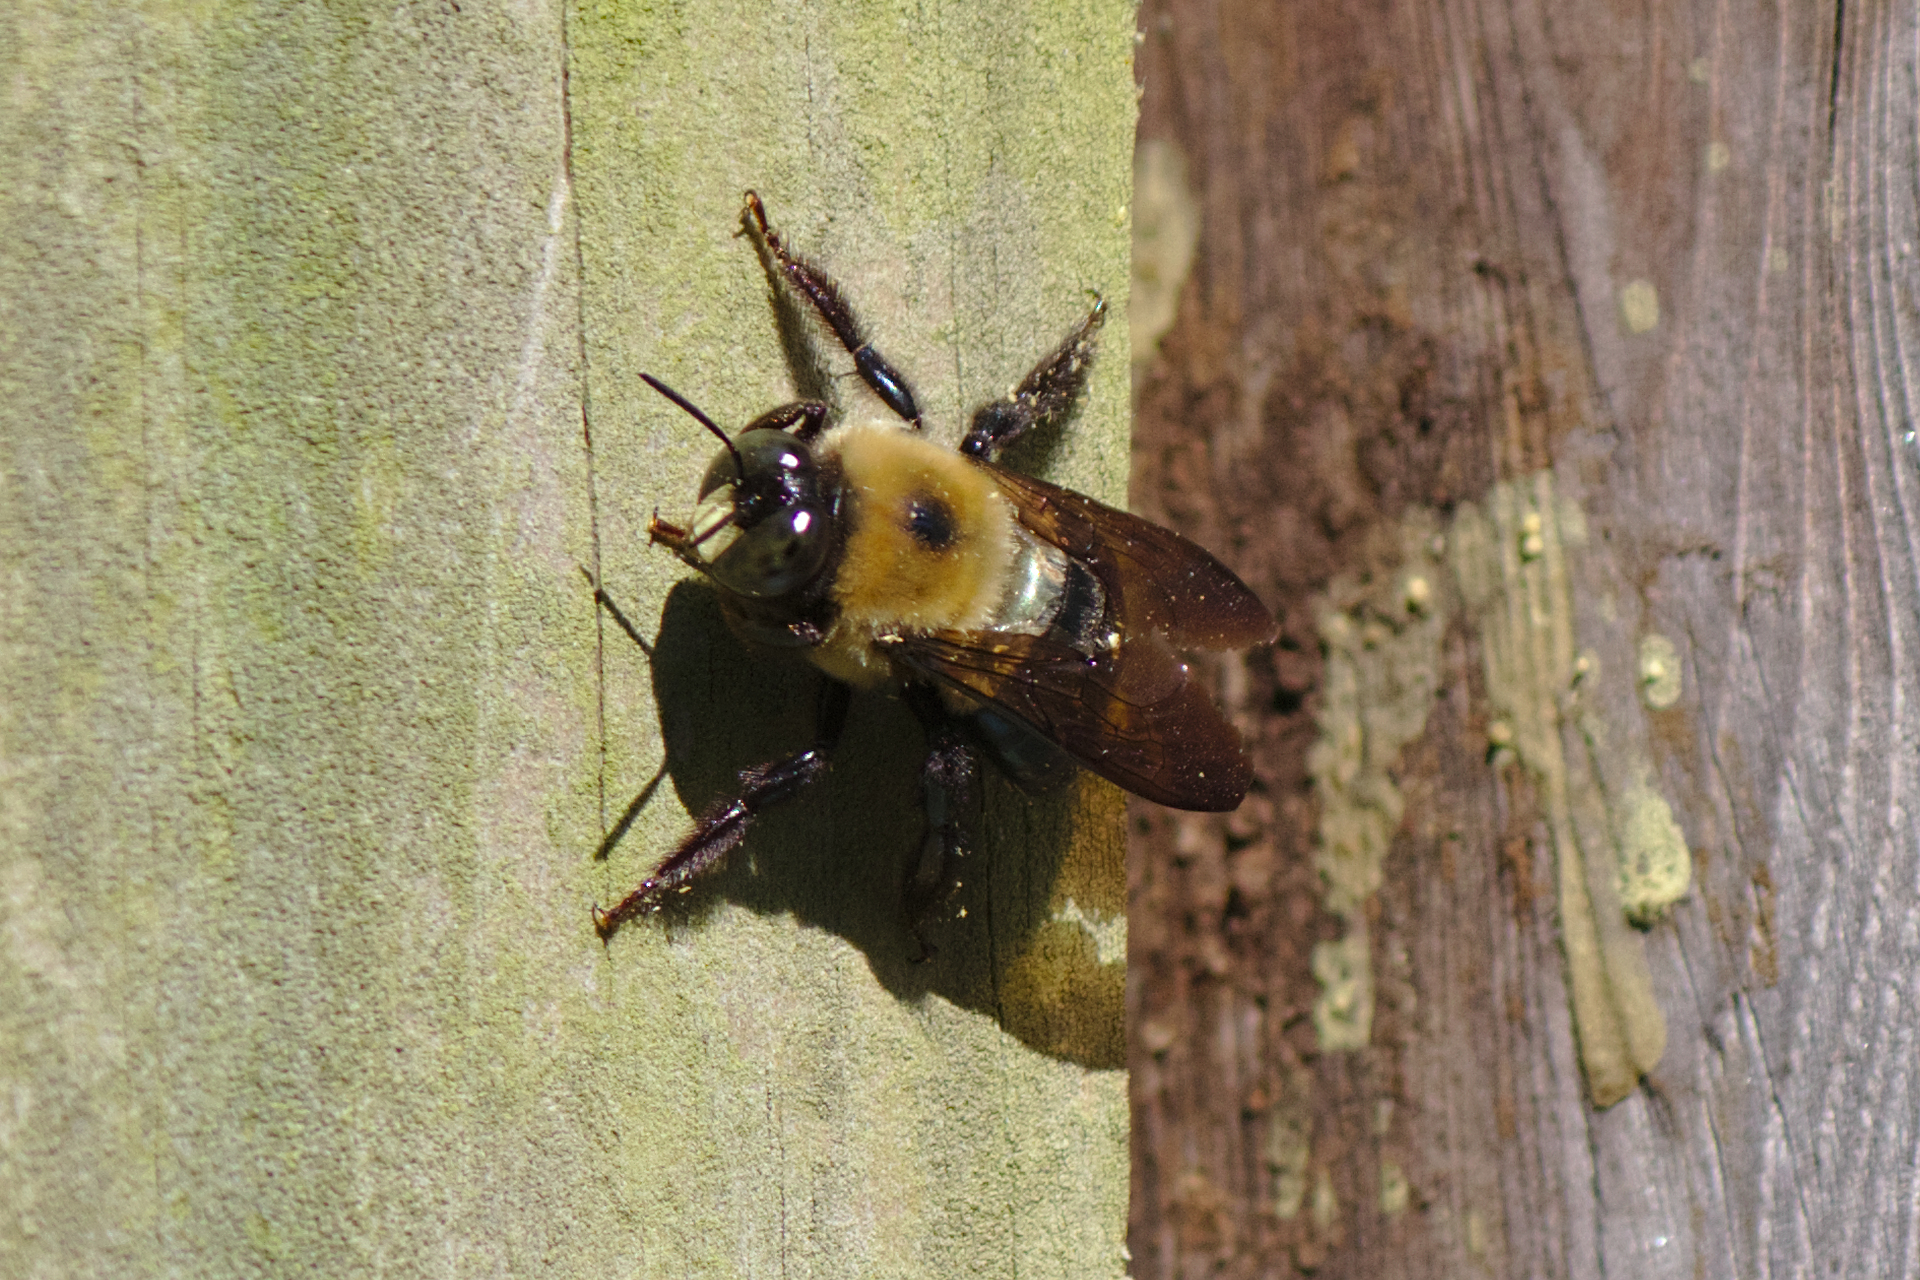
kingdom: Animalia
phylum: Arthropoda
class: Insecta
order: Hymenoptera
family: Apidae
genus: Xylocopa
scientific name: Xylocopa virginica
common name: Carpenter bee
